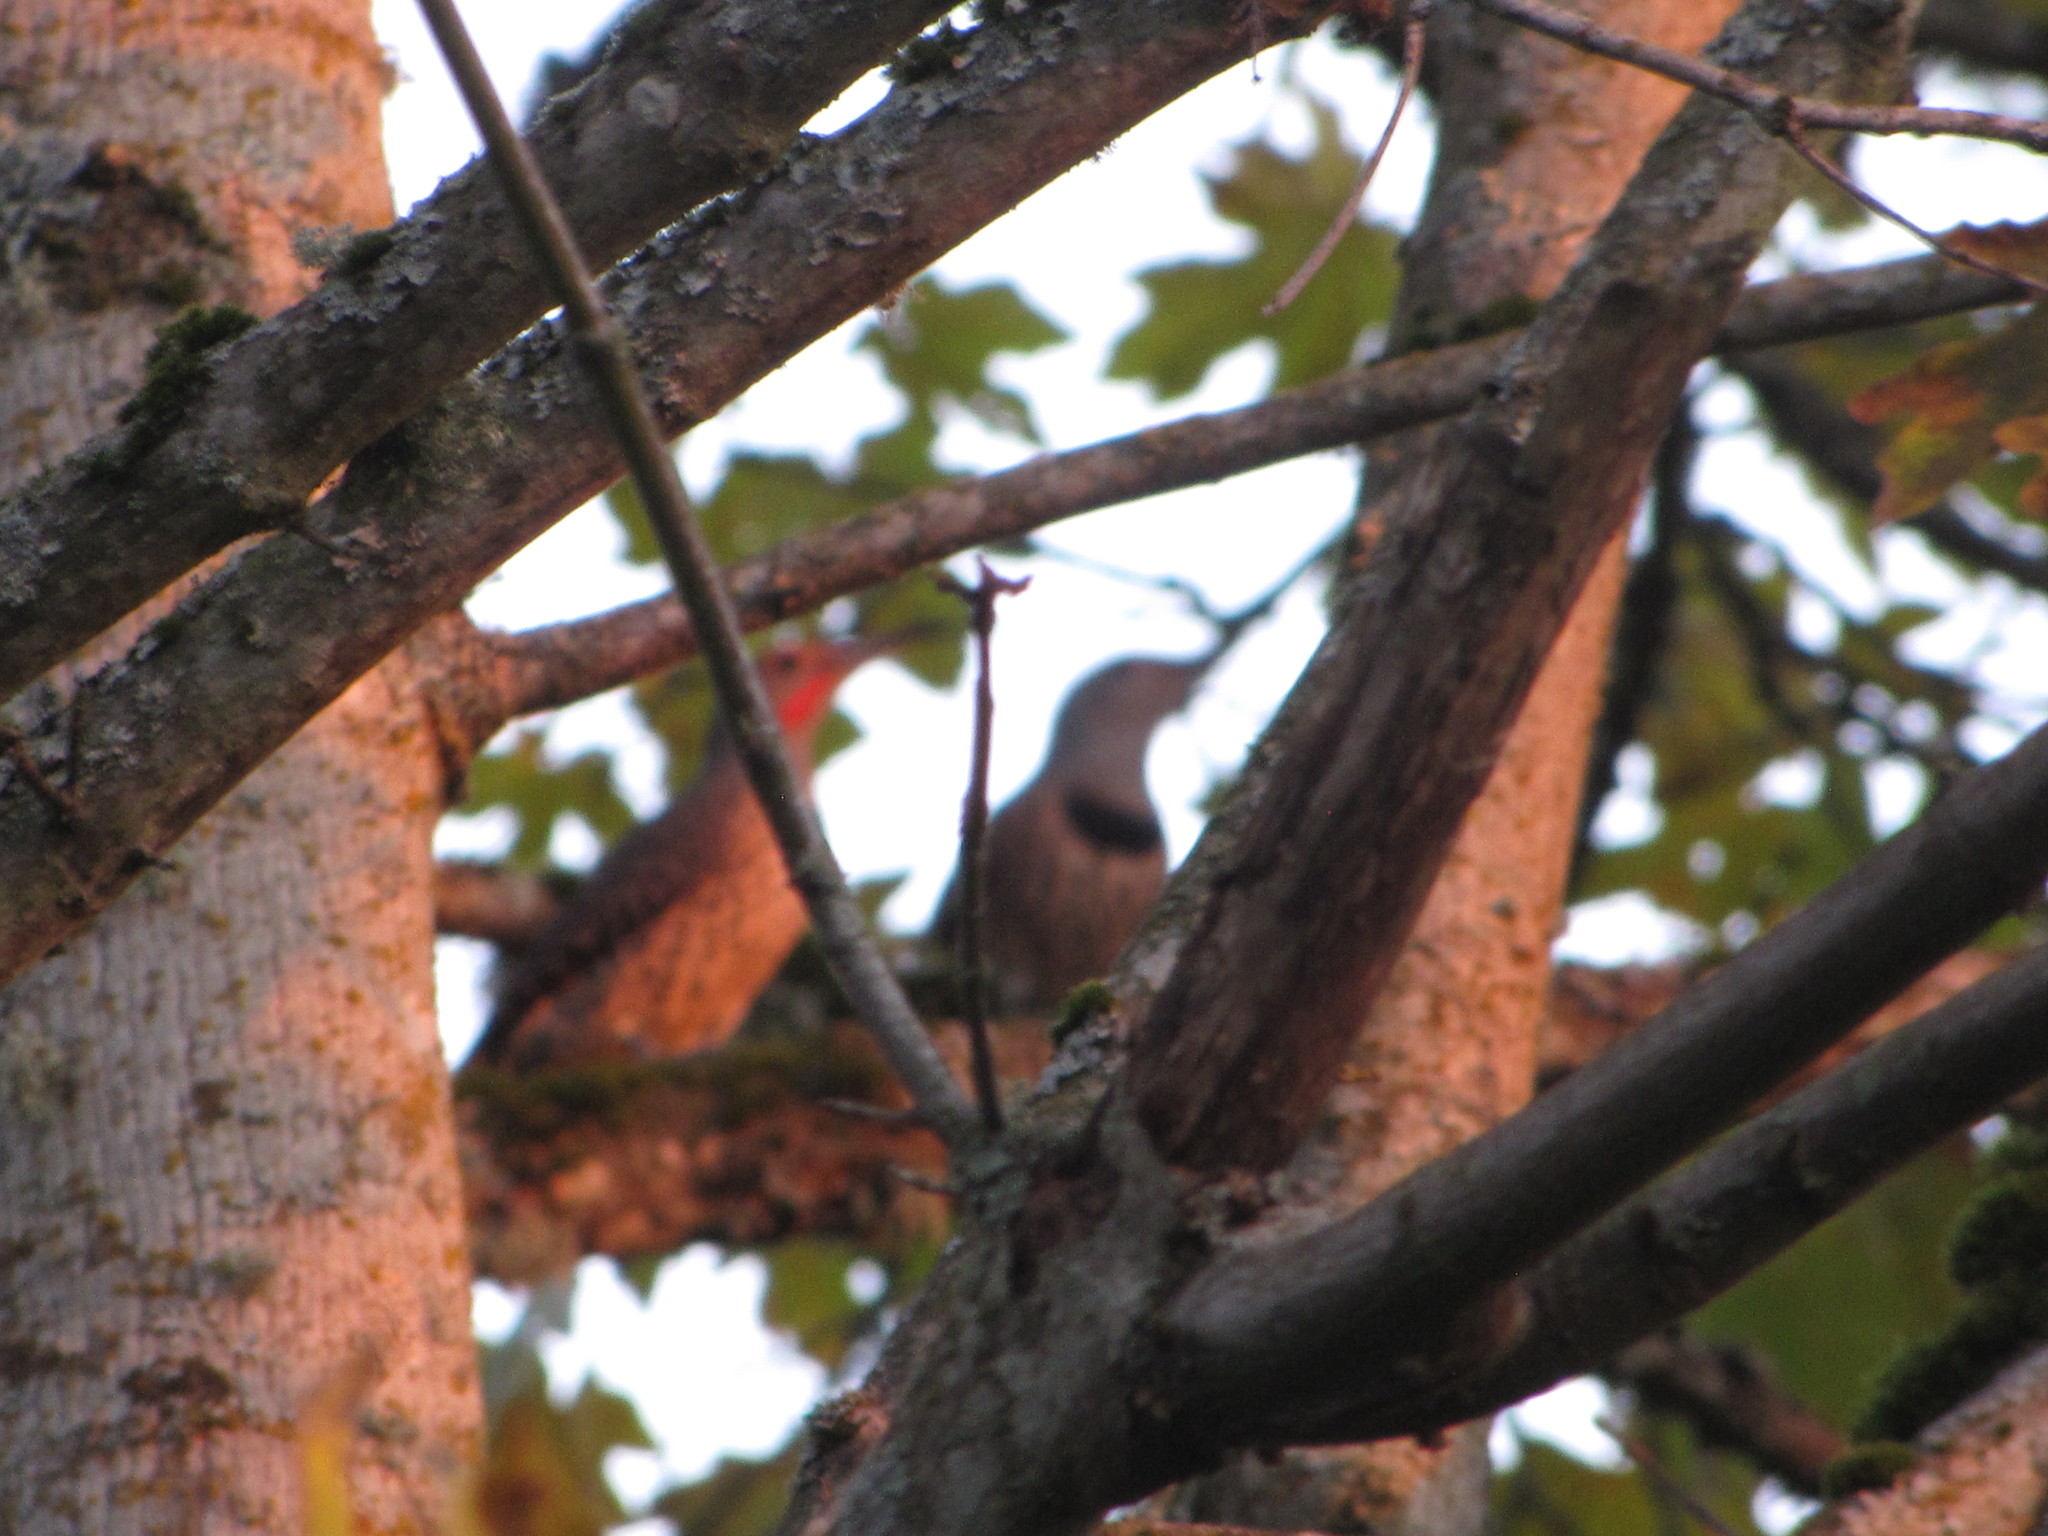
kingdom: Animalia
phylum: Chordata
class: Aves
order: Piciformes
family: Picidae
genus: Colaptes
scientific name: Colaptes auratus
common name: Northern flicker
